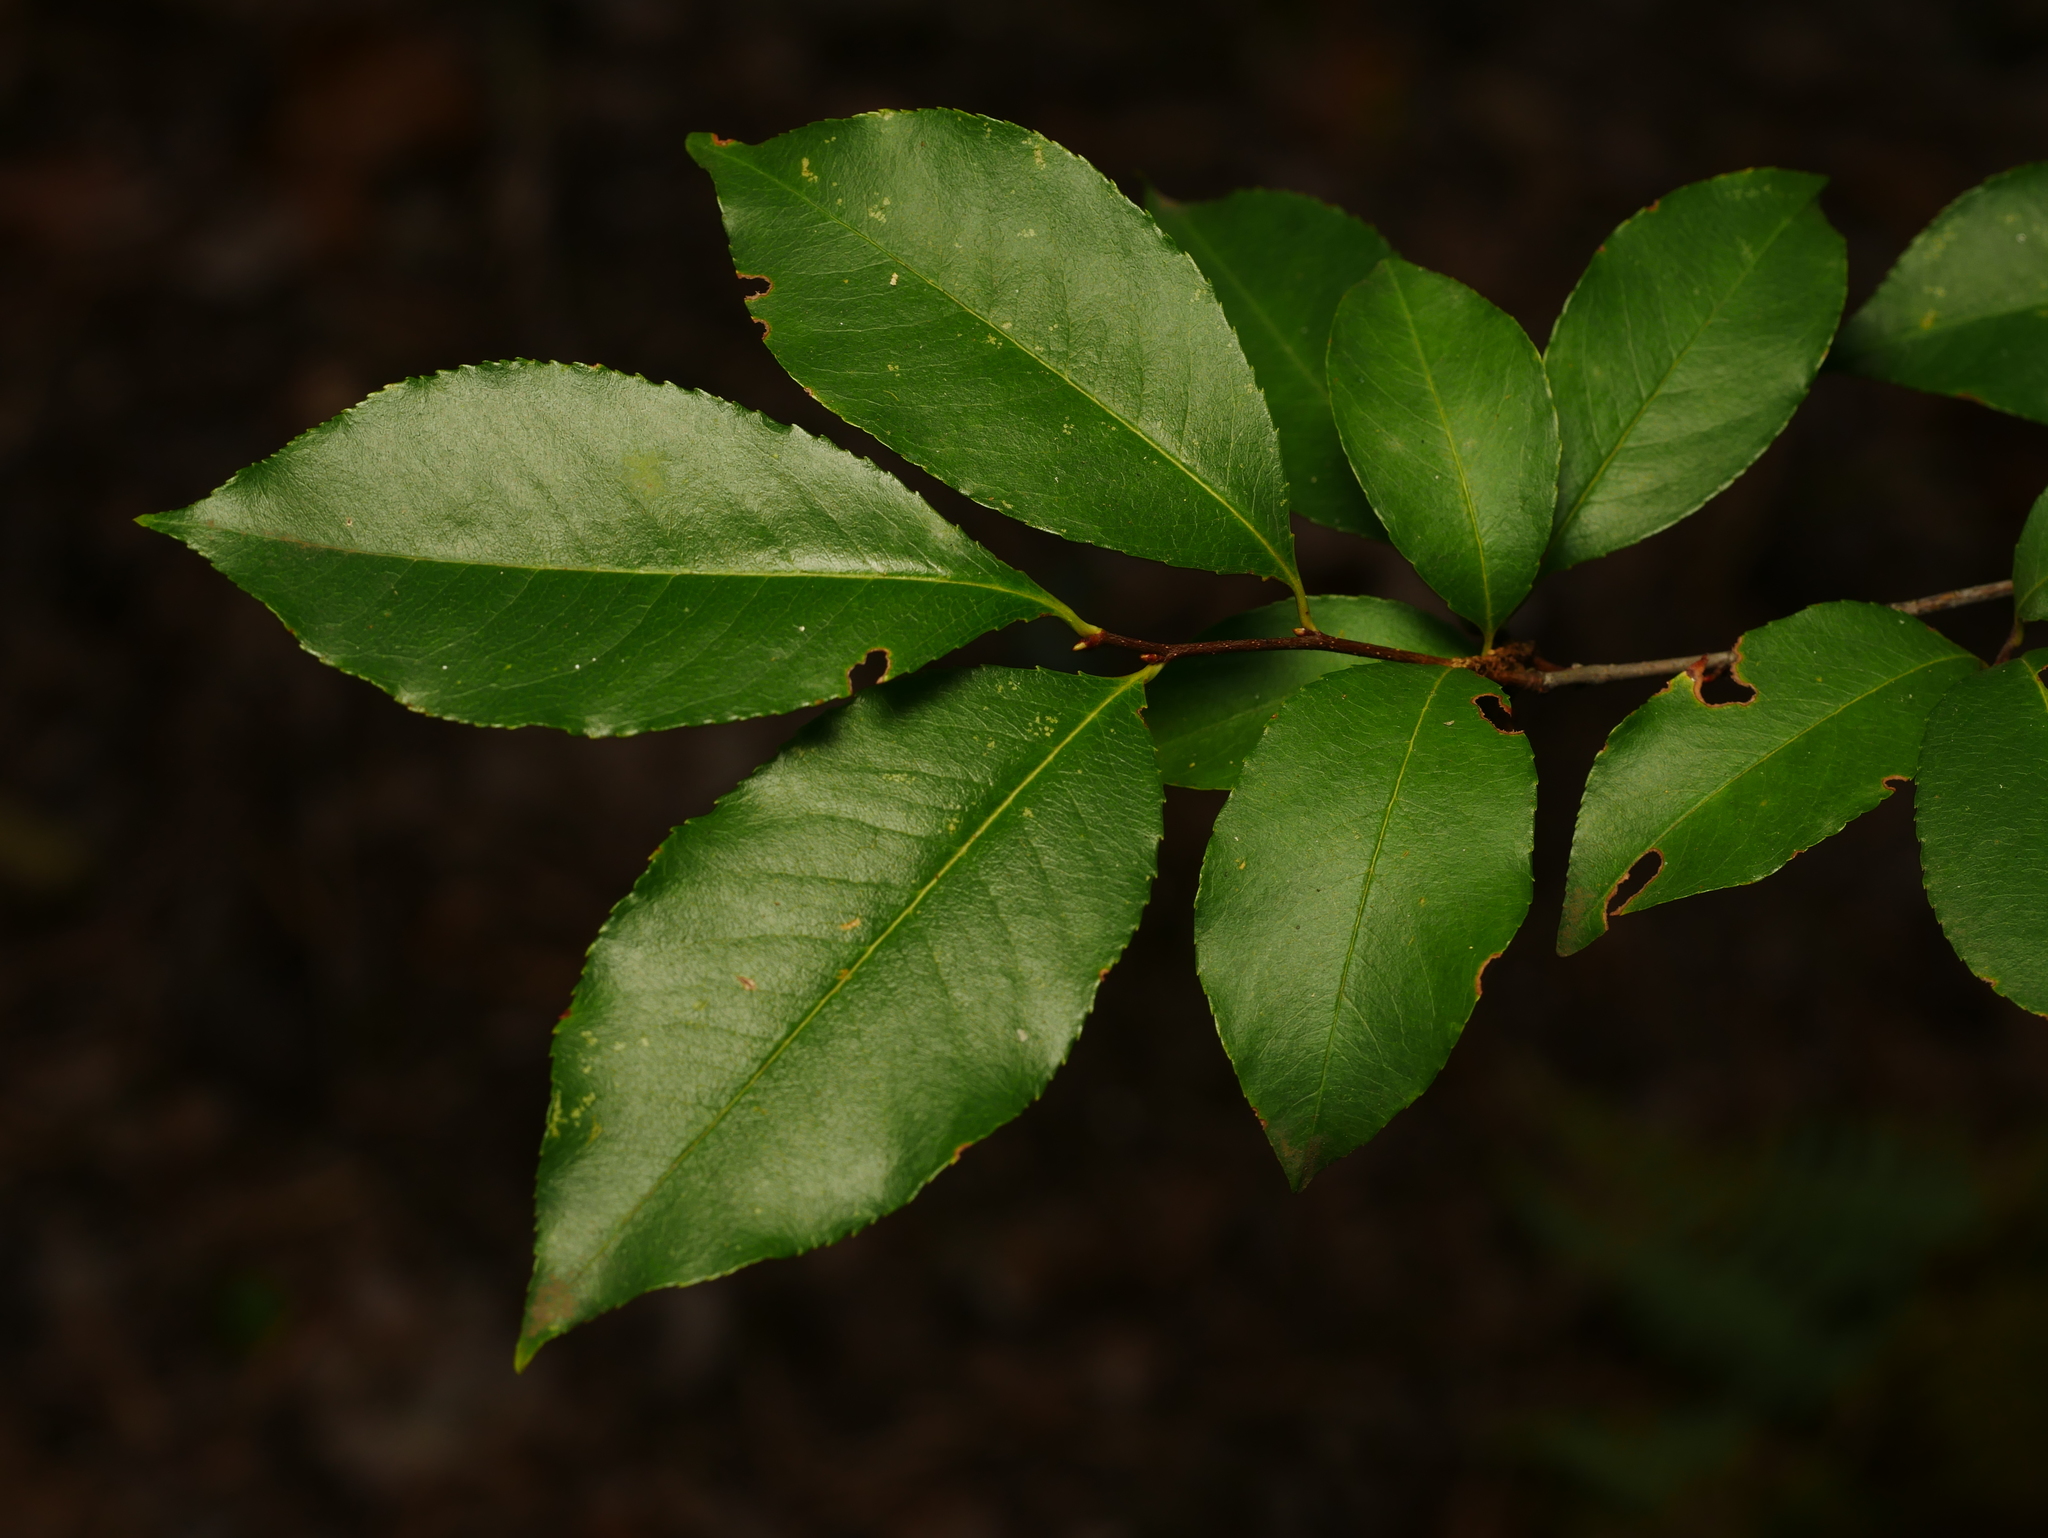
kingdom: Plantae
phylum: Tracheophyta
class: Magnoliopsida
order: Rosales
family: Rosaceae
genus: Prunus
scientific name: Prunus serotina
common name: Black cherry
